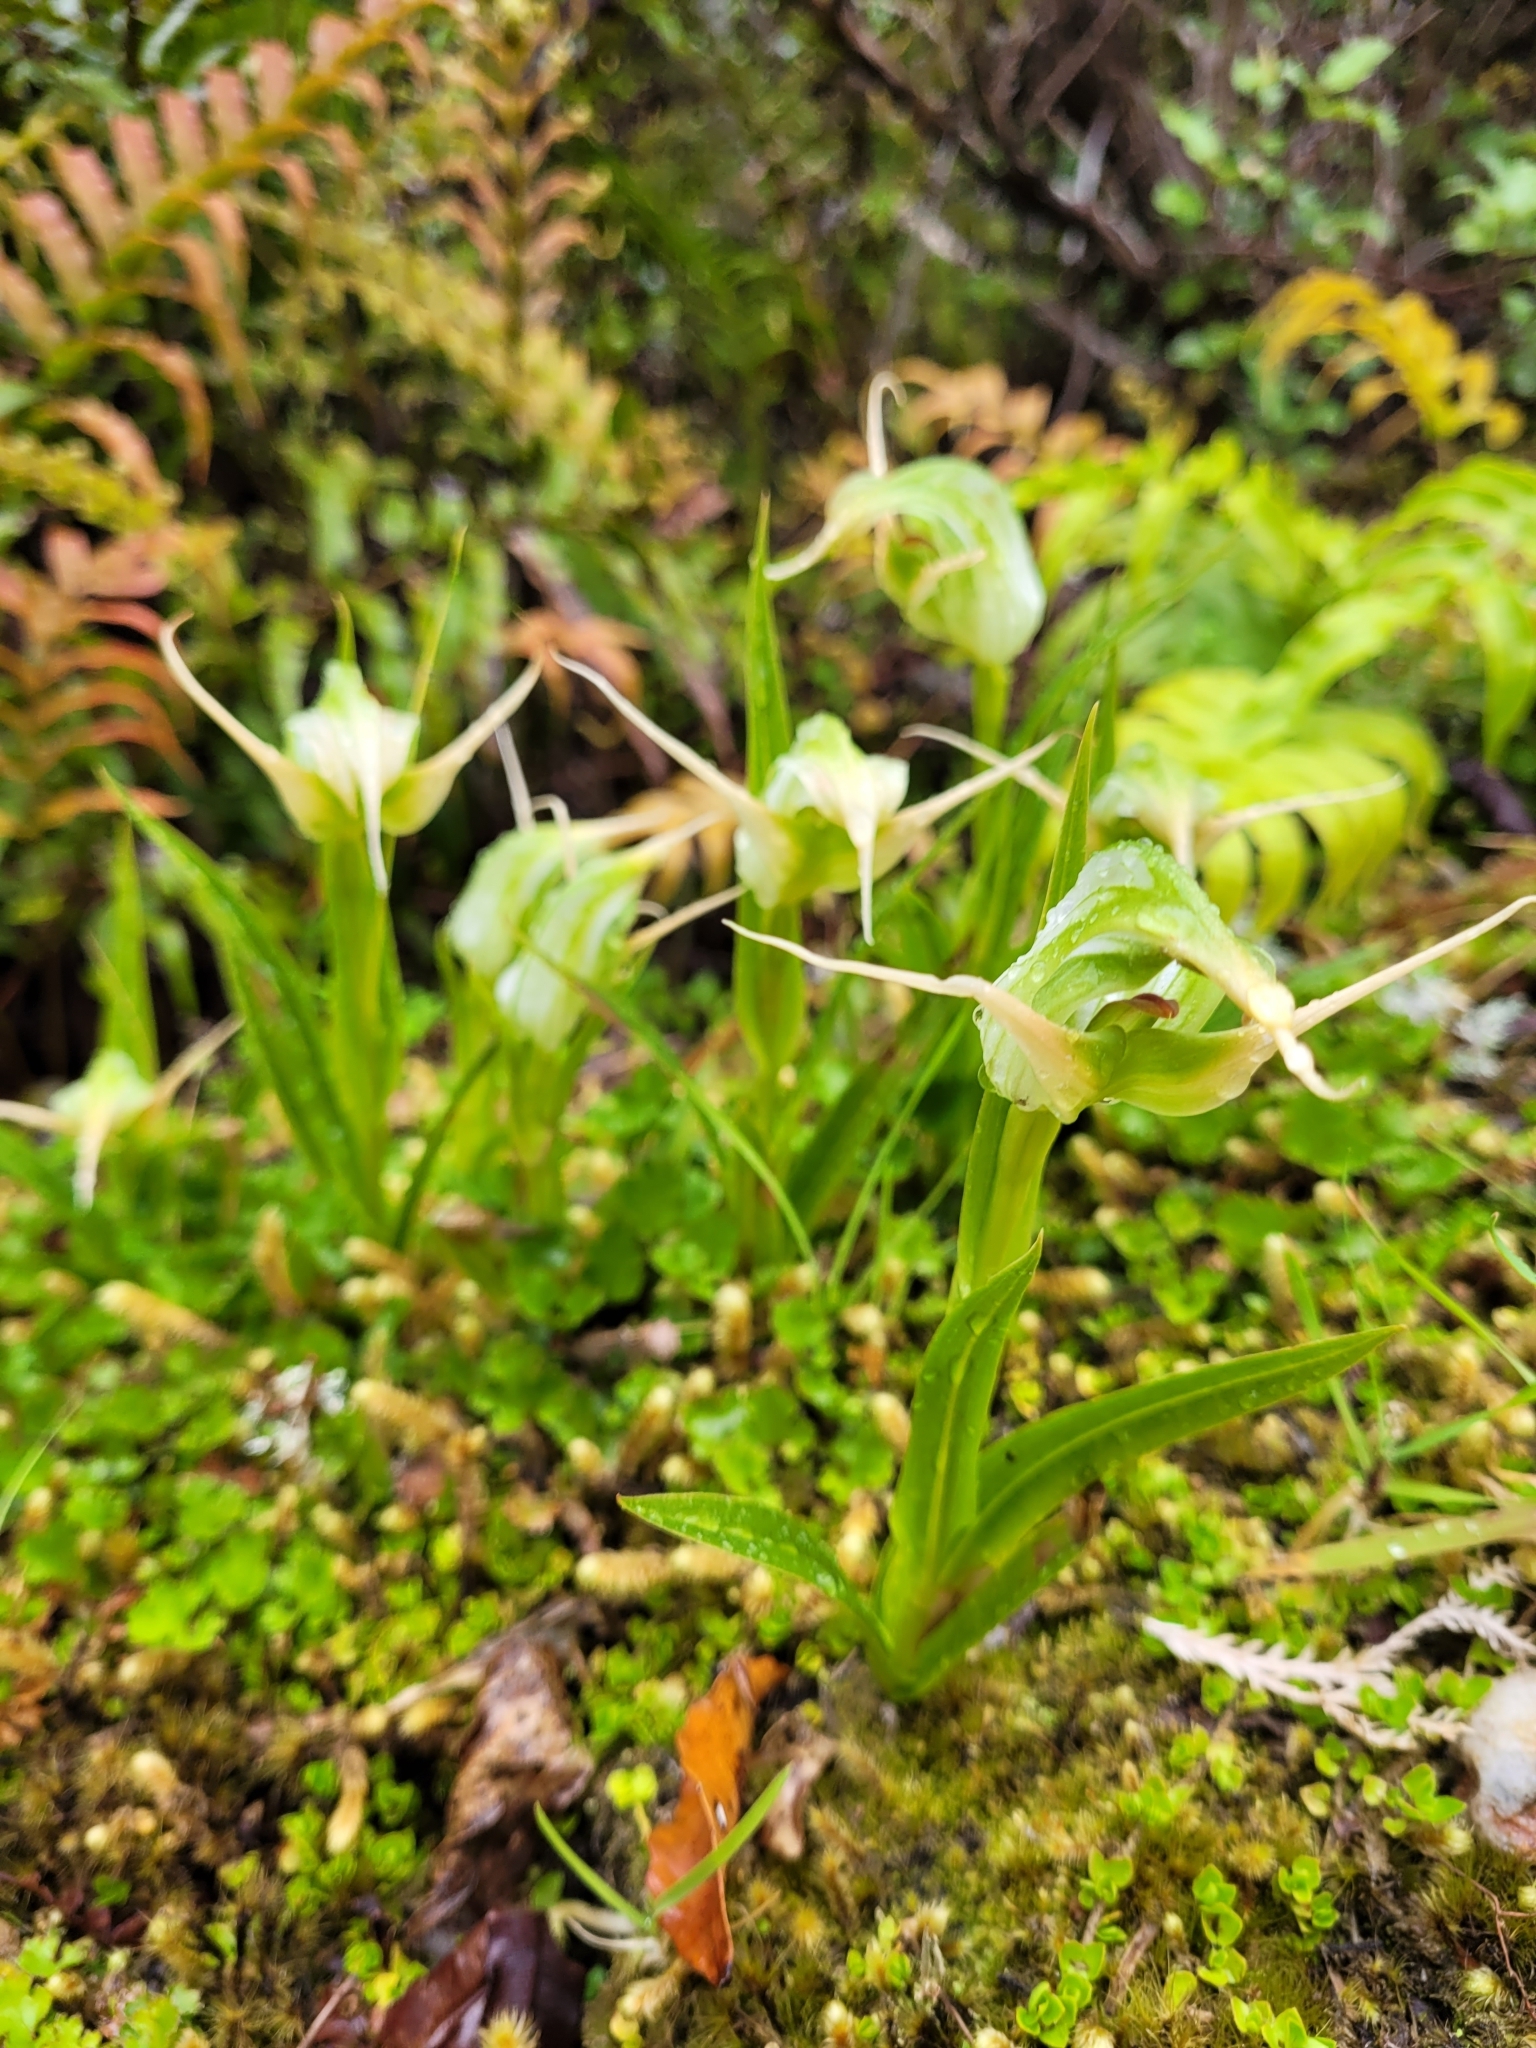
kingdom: Plantae
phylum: Tracheophyta
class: Liliopsida
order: Asparagales
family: Orchidaceae
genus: Pterostylis
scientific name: Pterostylis australis
